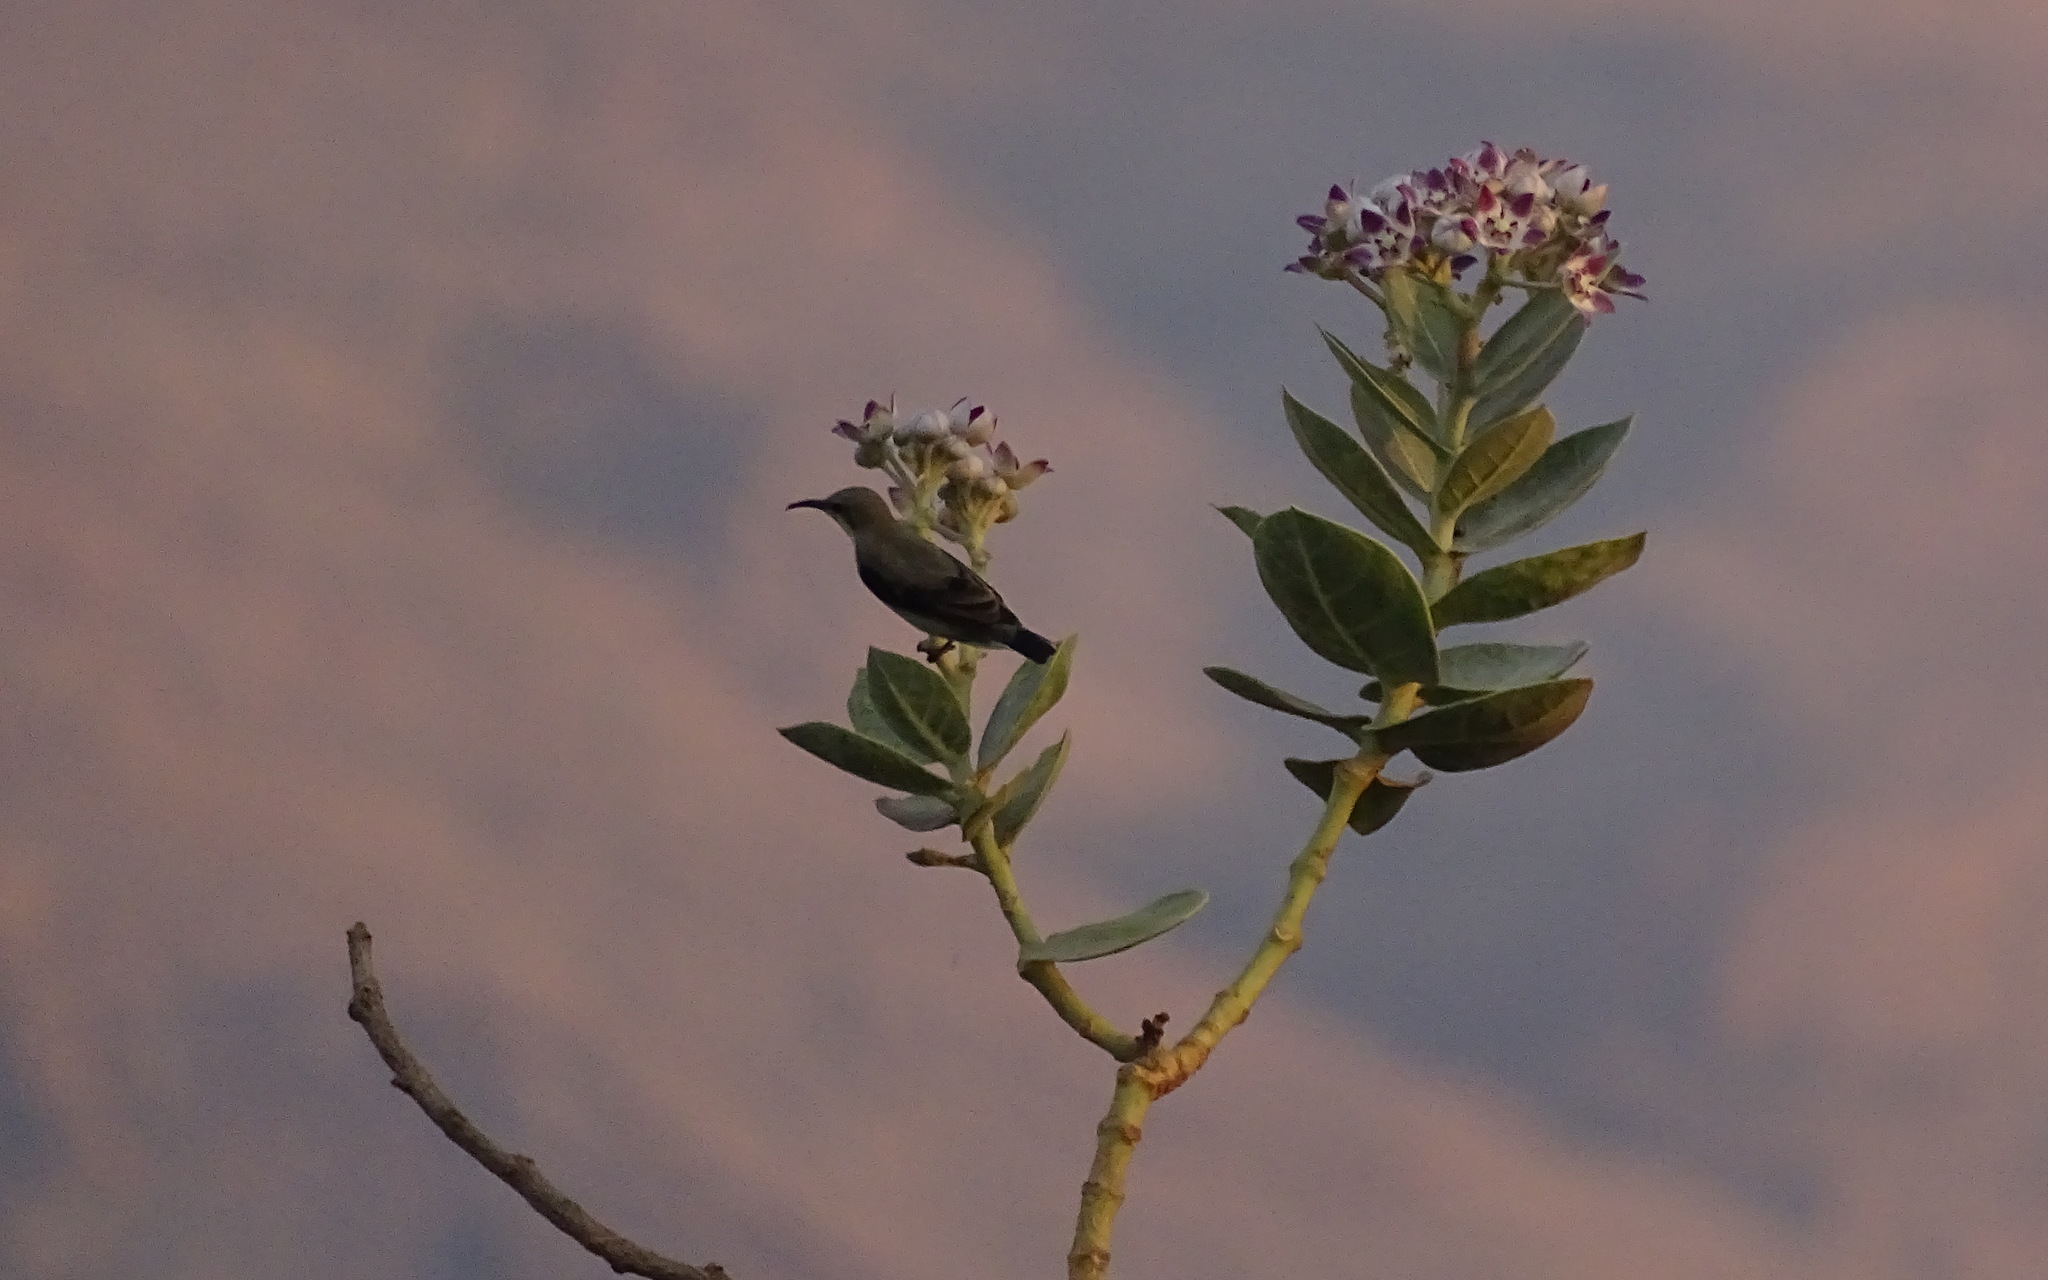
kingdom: Animalia
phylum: Chordata
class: Aves
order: Passeriformes
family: Nectariniidae
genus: Cinnyris
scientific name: Cinnyris asiaticus
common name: Purple sunbird
